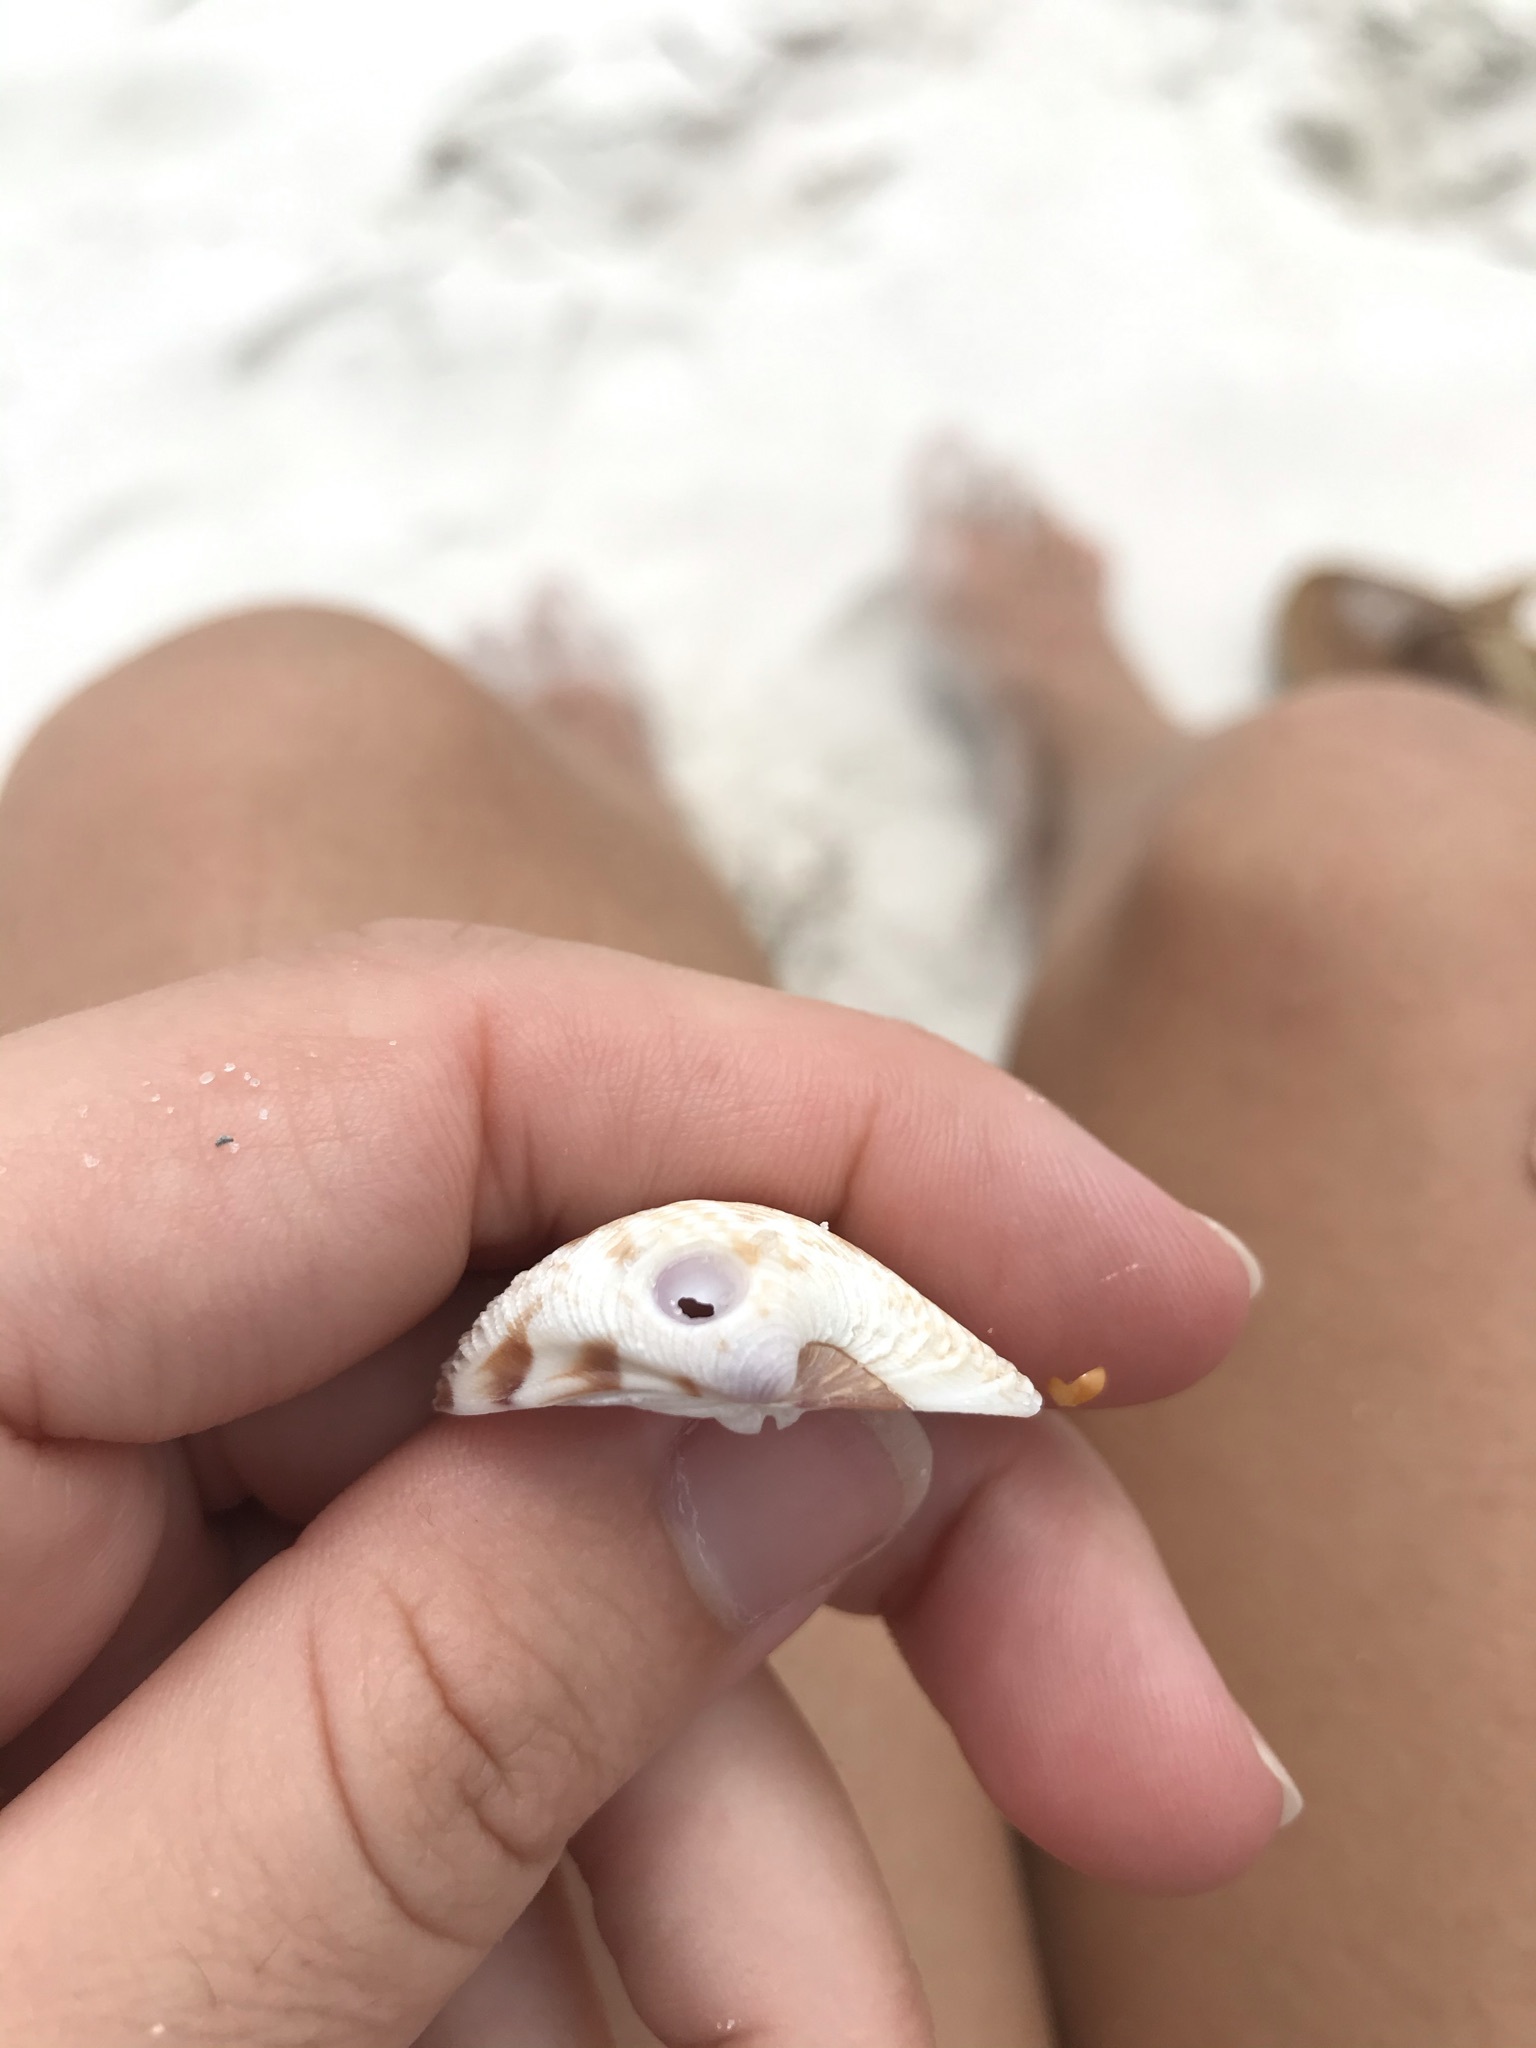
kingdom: Animalia
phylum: Mollusca
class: Bivalvia
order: Venerida
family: Veneridae
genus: Chionopsis
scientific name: Chionopsis intapurpurea
